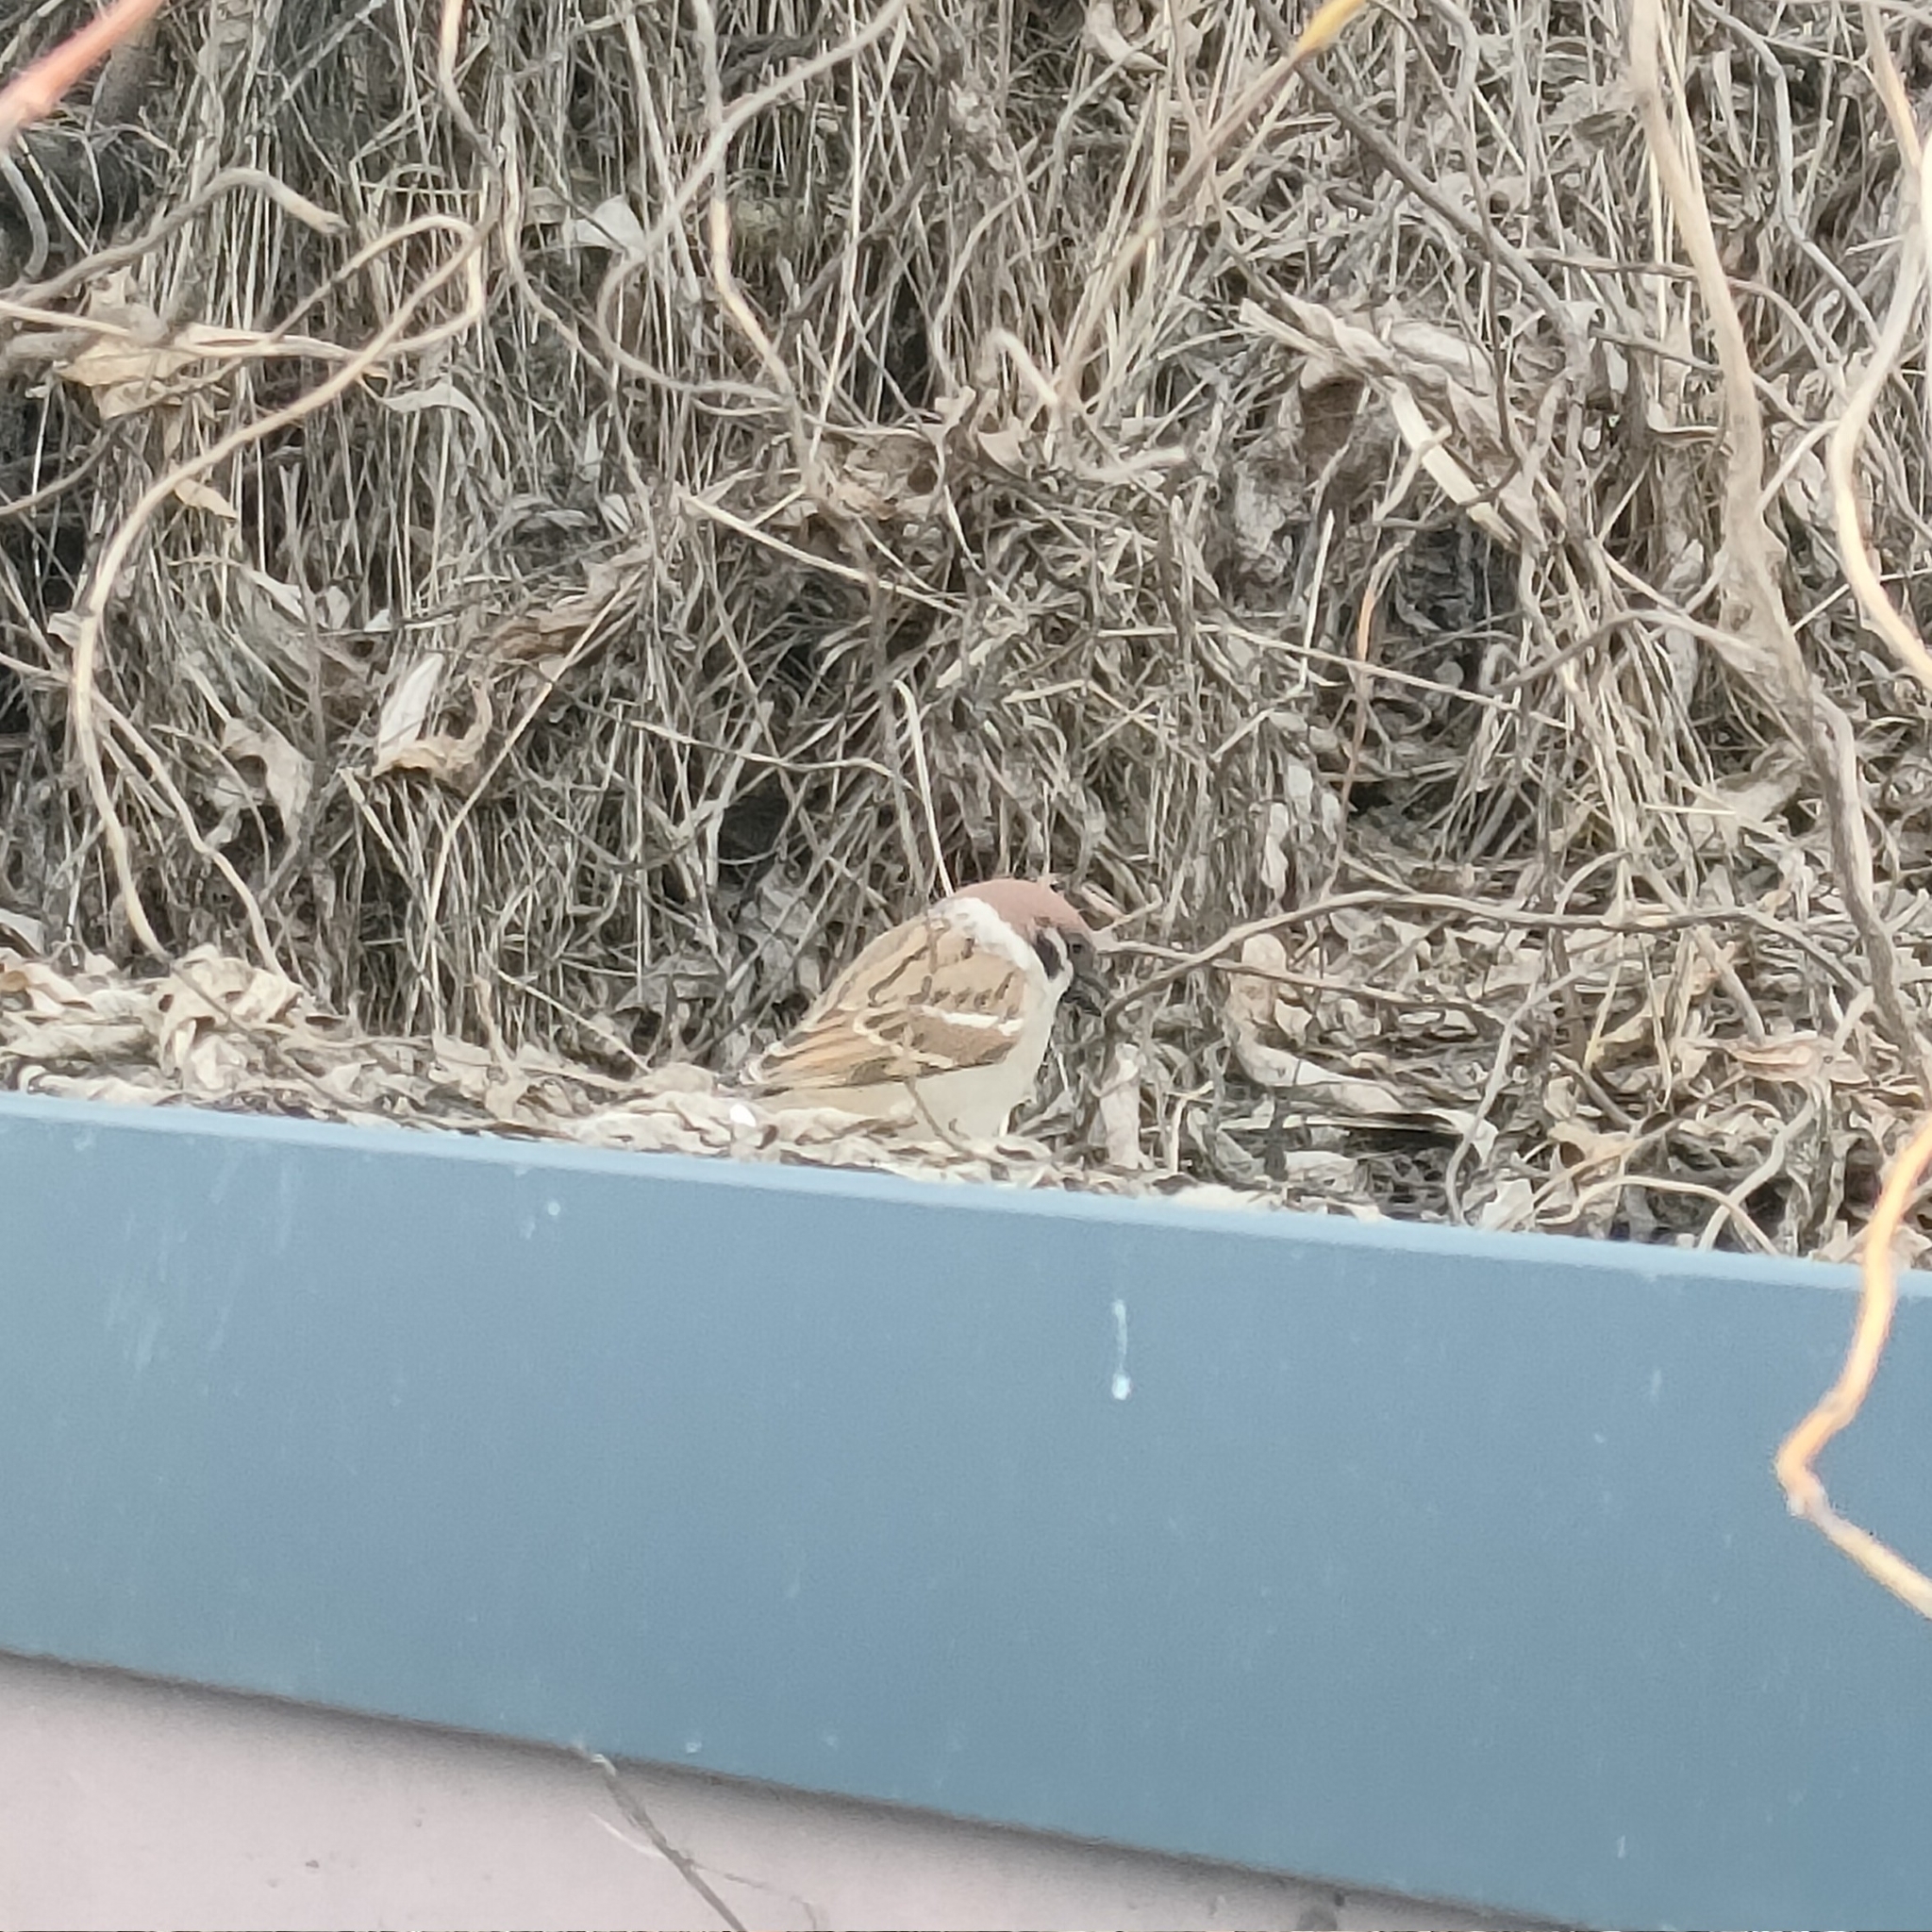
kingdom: Animalia
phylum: Chordata
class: Aves
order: Passeriformes
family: Passeridae
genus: Passer
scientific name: Passer montanus
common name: Eurasian tree sparrow
